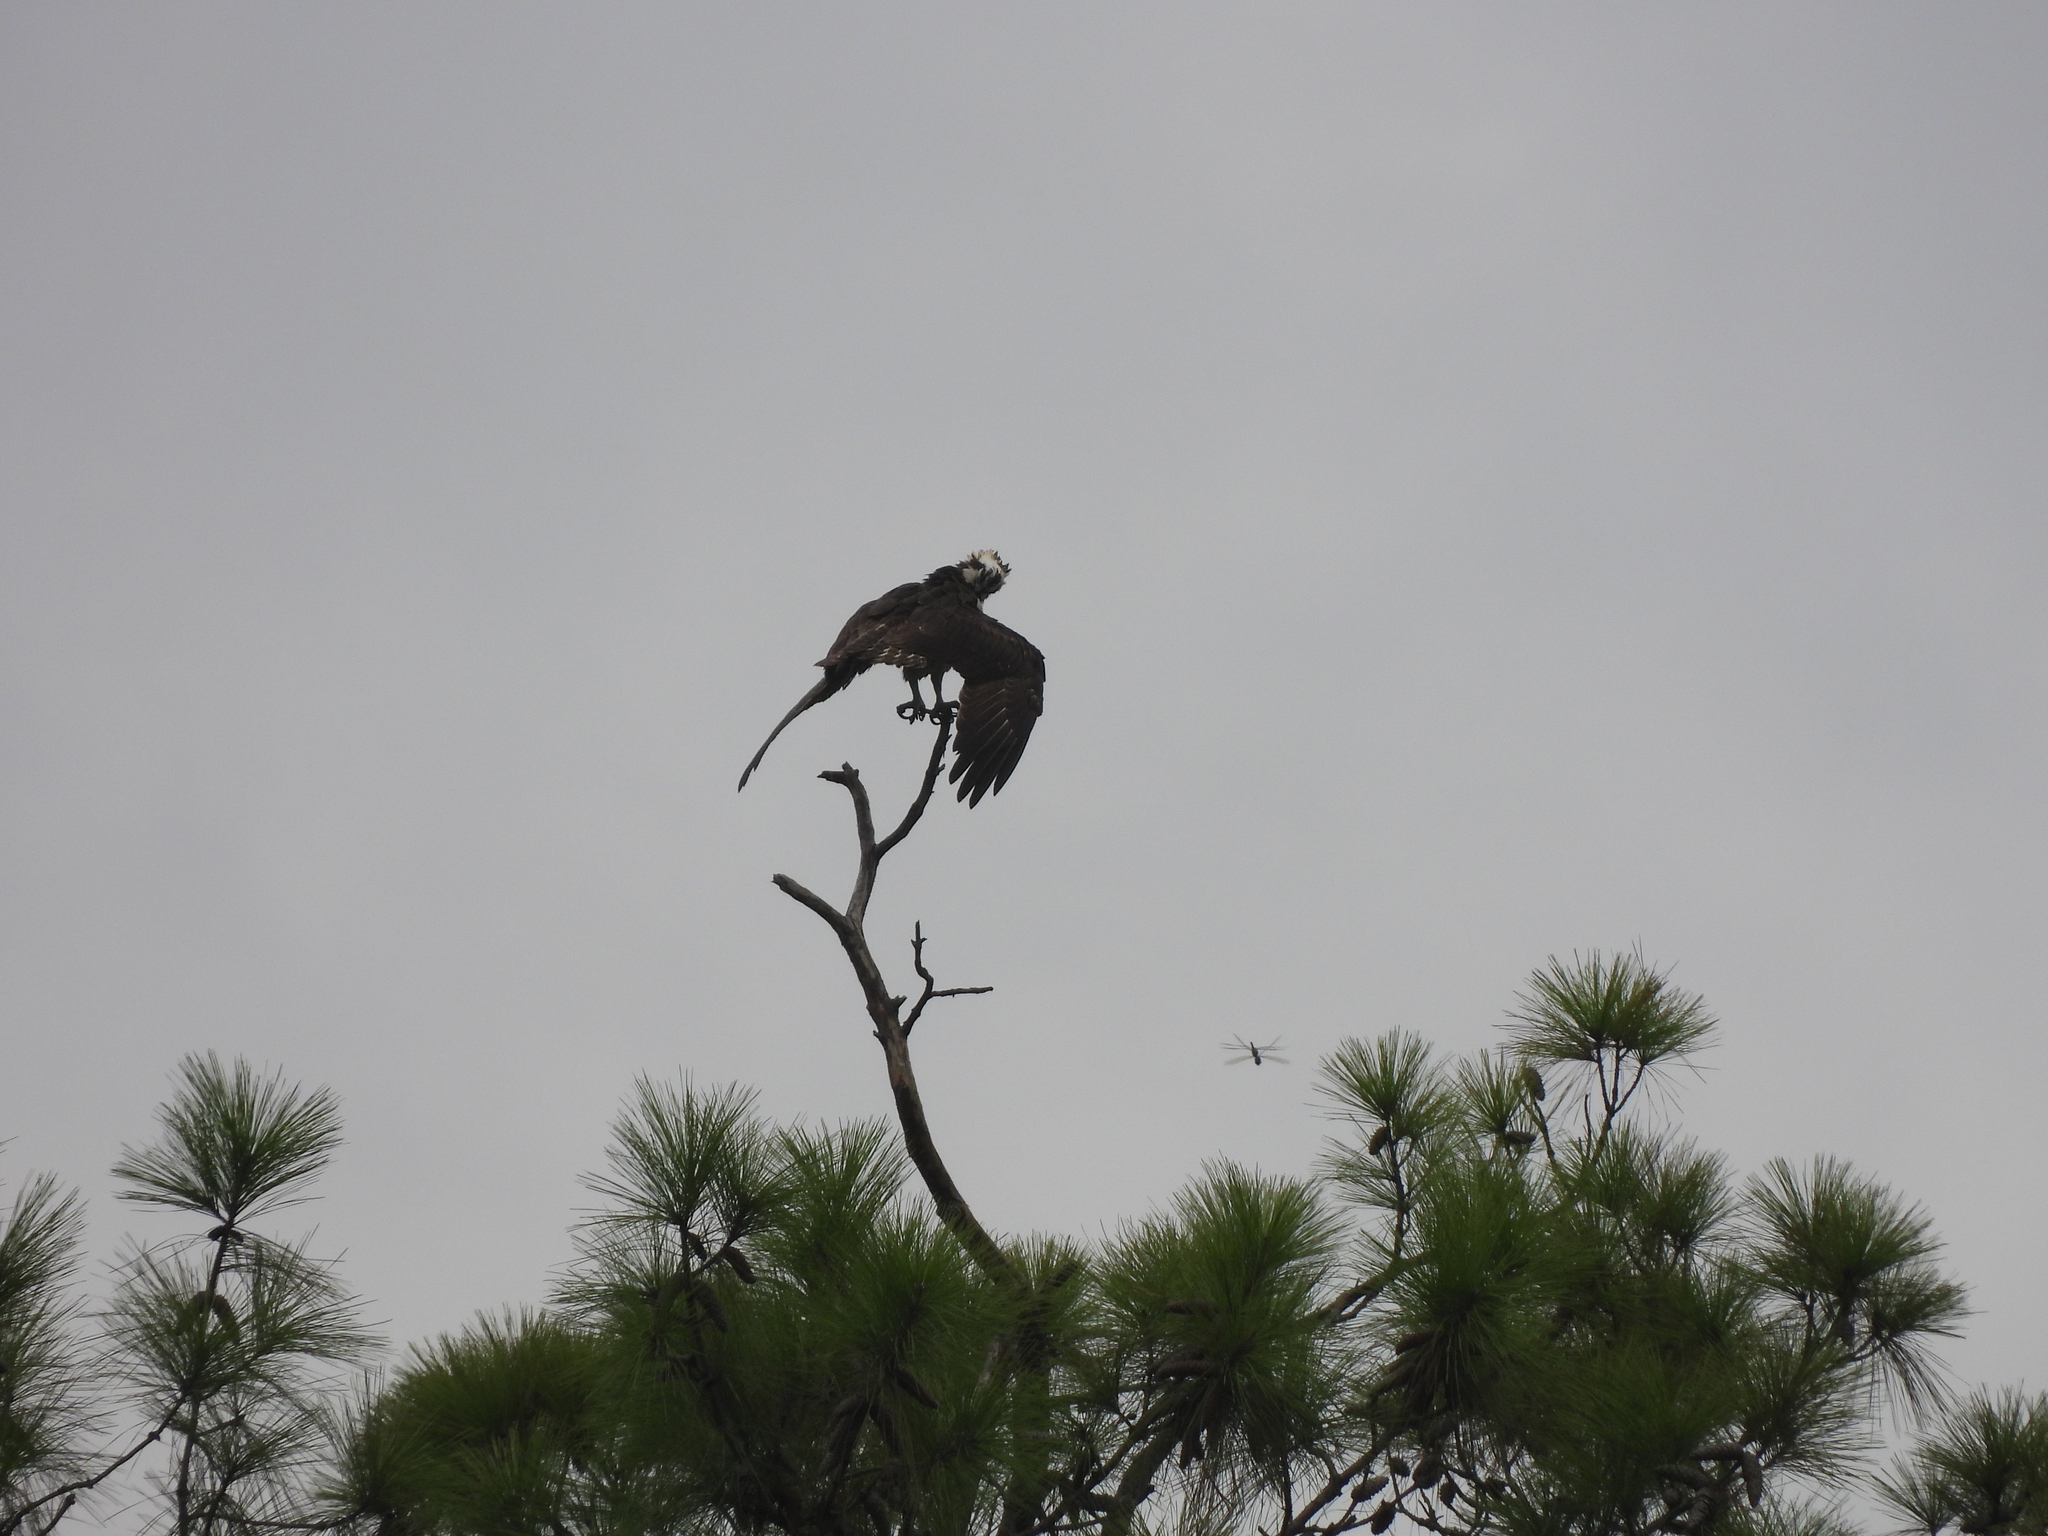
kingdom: Animalia
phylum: Chordata
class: Aves
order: Accipitriformes
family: Pandionidae
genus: Pandion
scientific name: Pandion haliaetus
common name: Osprey
